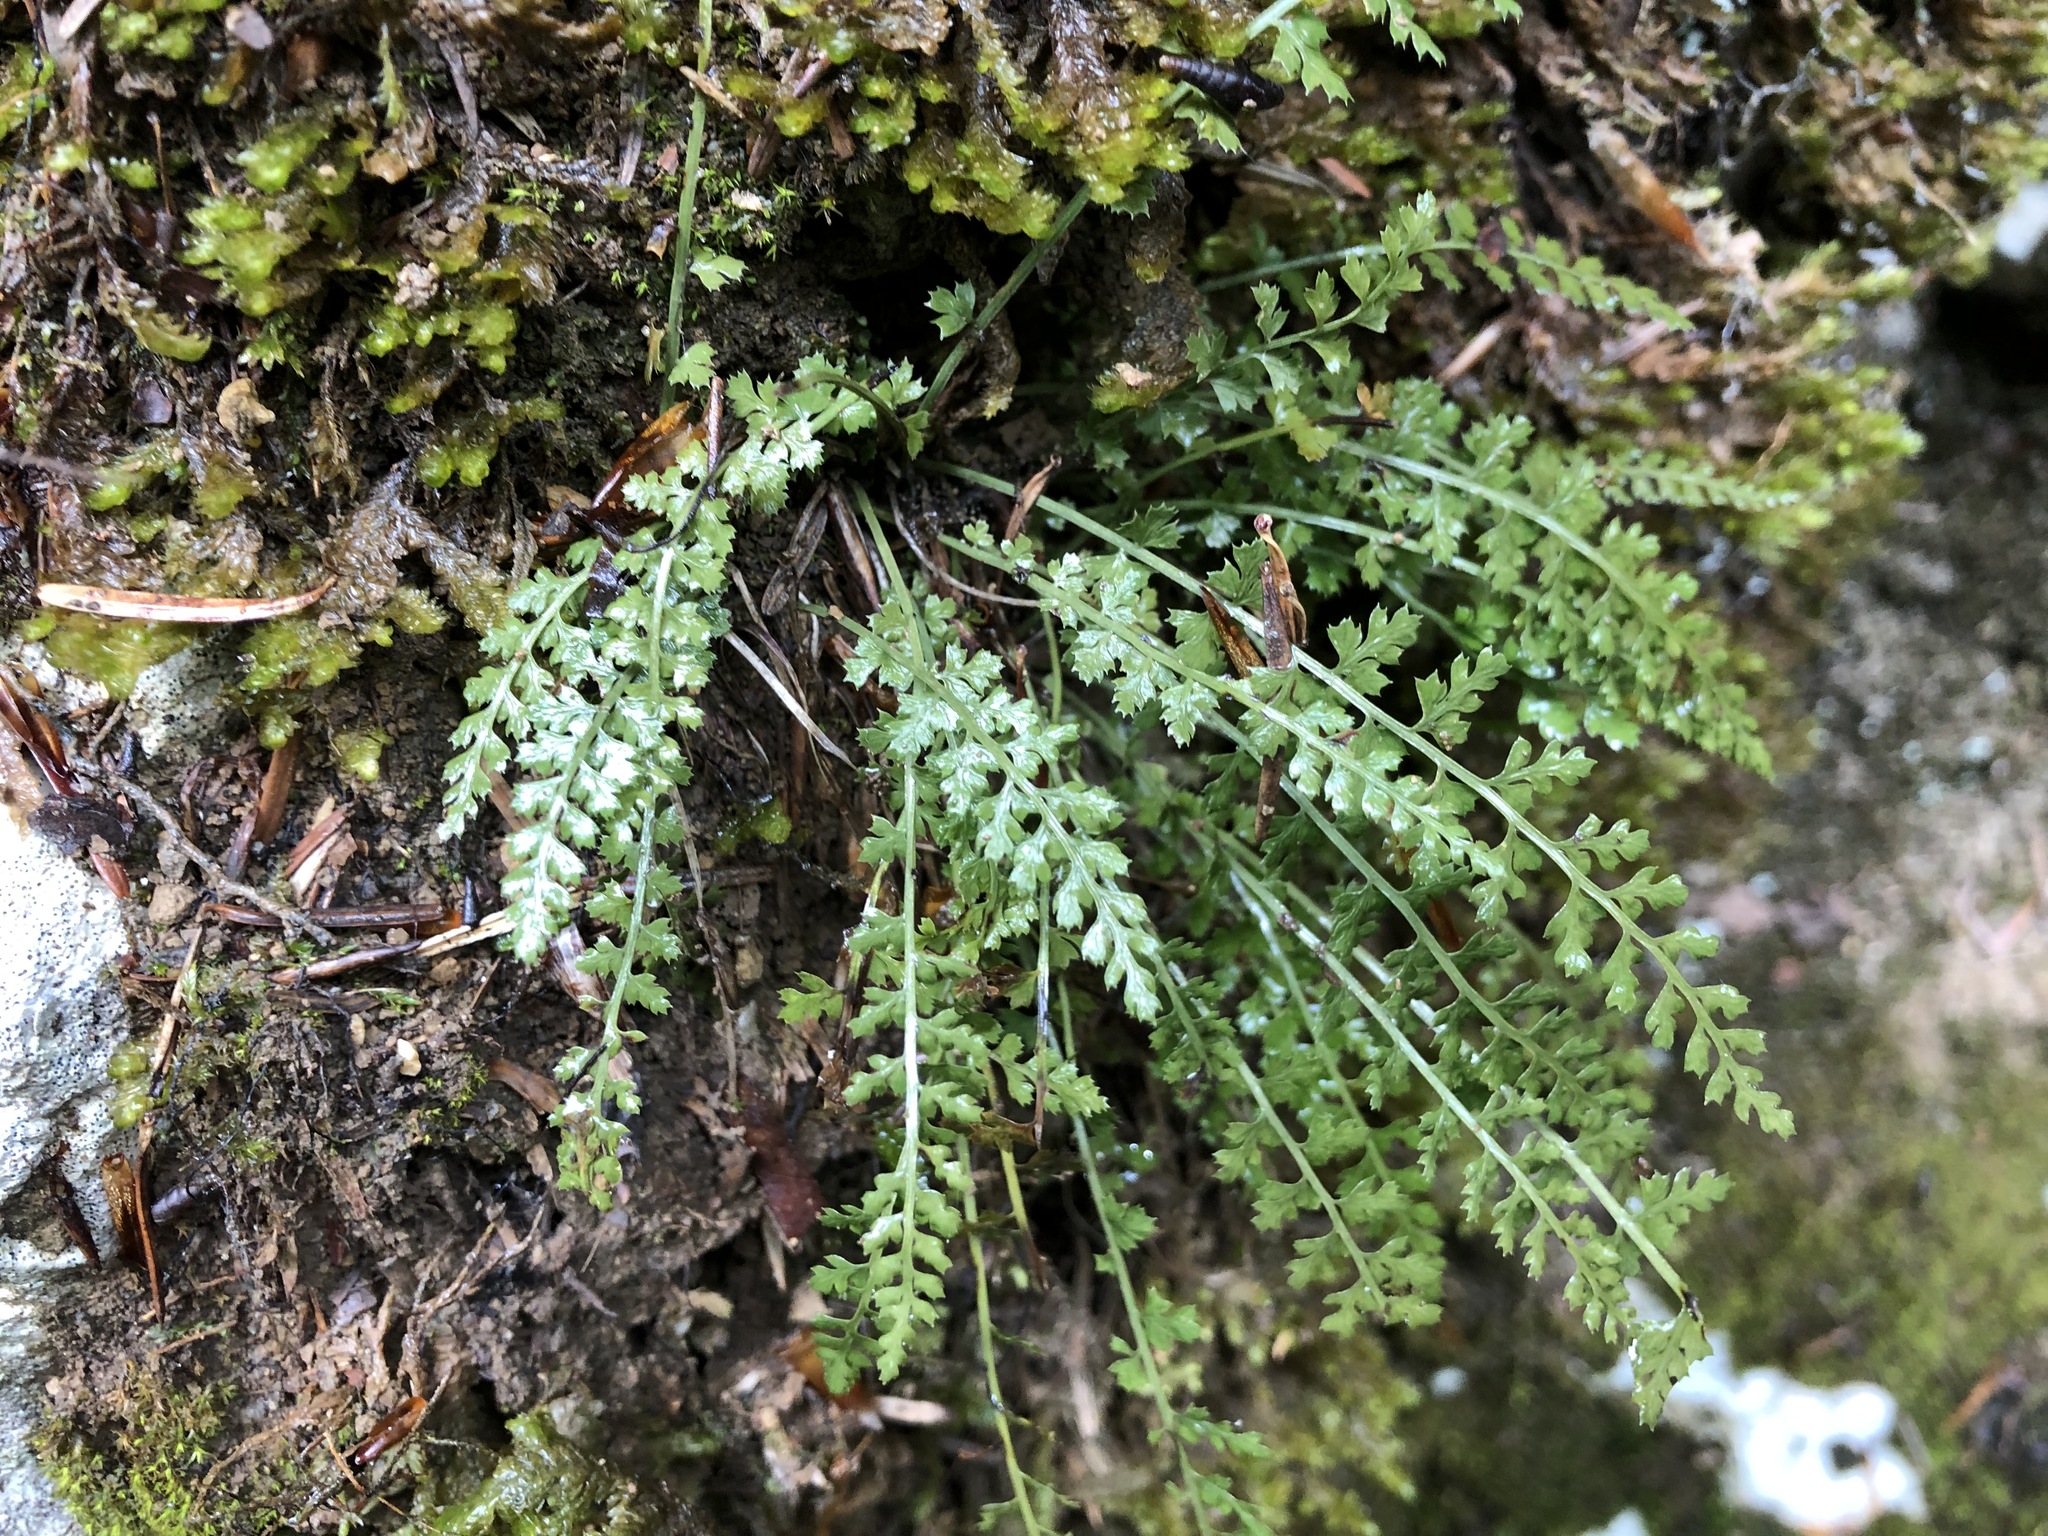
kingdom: Plantae
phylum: Tracheophyta
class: Polypodiopsida
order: Polypodiales
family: Aspleniaceae
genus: Asplenium
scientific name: Asplenium fontanum
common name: Fountain spleenwort
